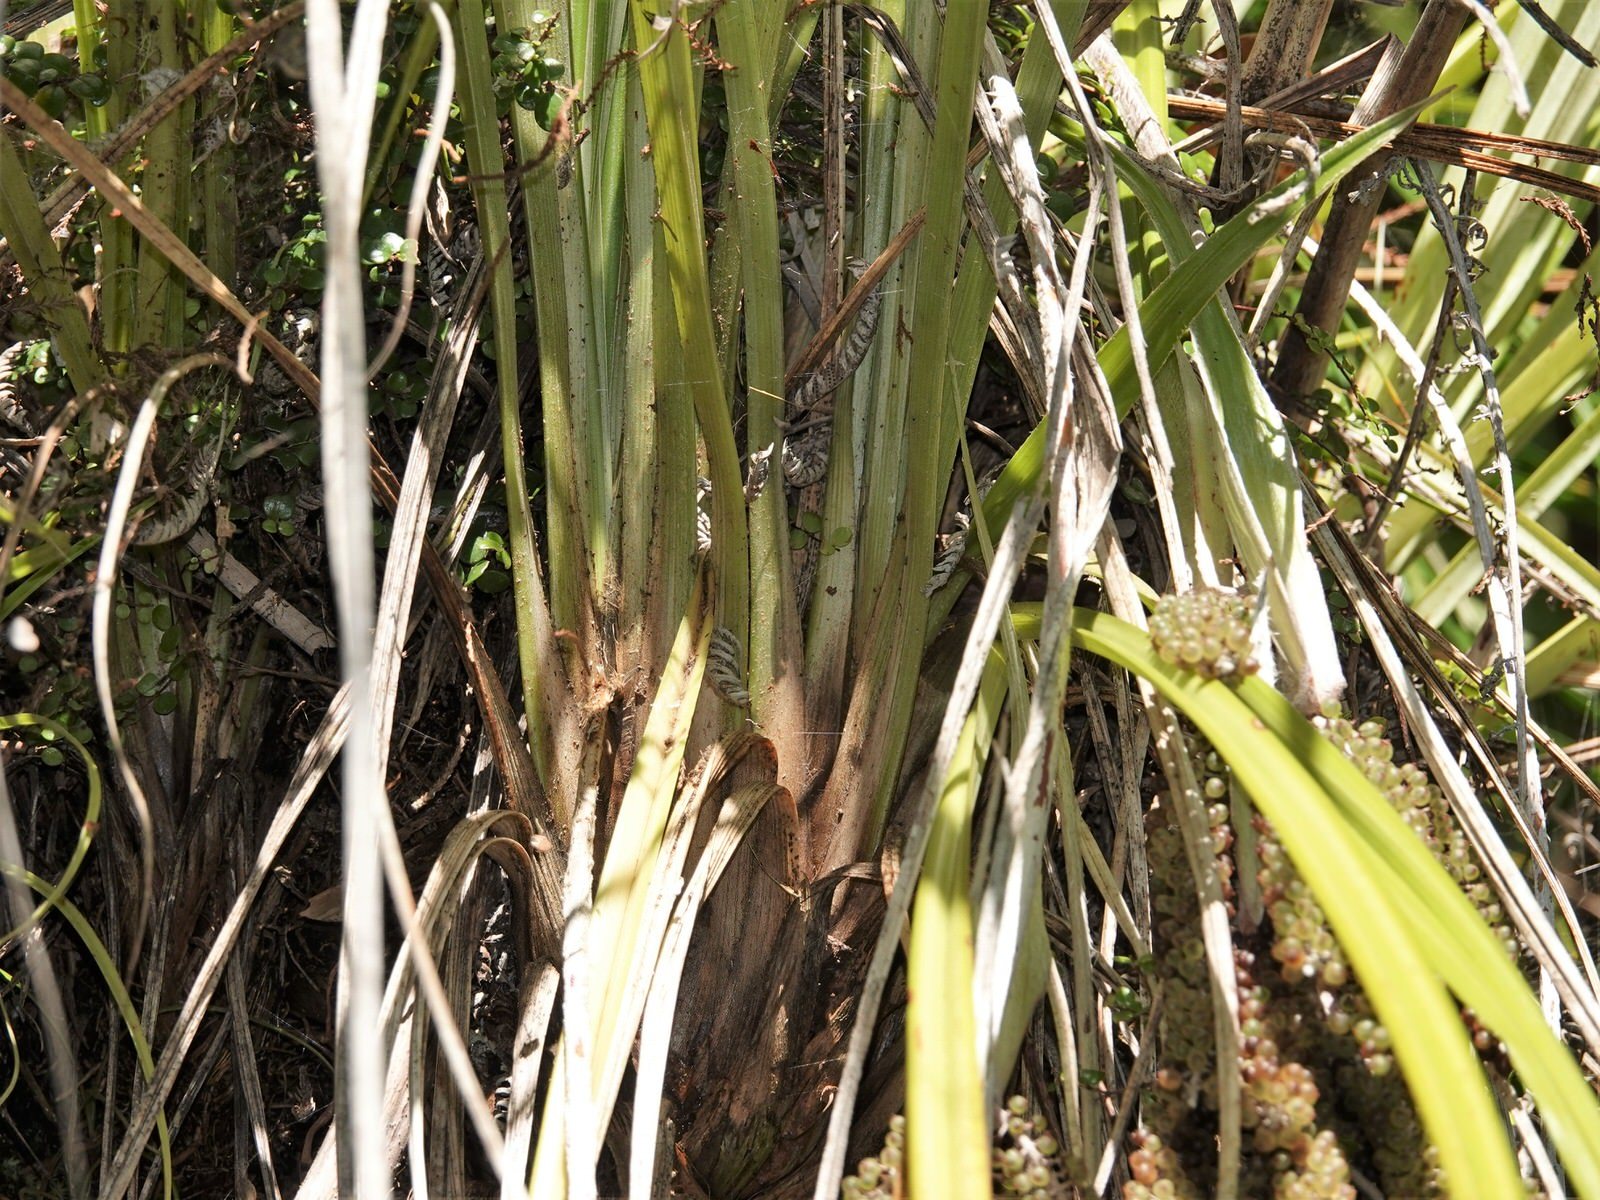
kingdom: Plantae
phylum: Tracheophyta
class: Liliopsida
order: Asparagales
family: Asteliaceae
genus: Astelia
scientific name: Astelia solandri
